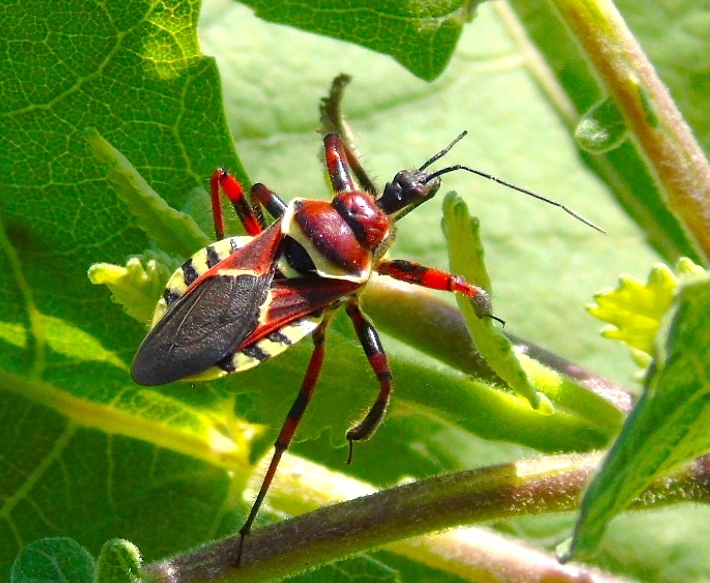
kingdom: Animalia
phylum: Arthropoda
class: Insecta
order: Hemiptera
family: Reduviidae
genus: Apiomerus
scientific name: Apiomerus flaviventris
